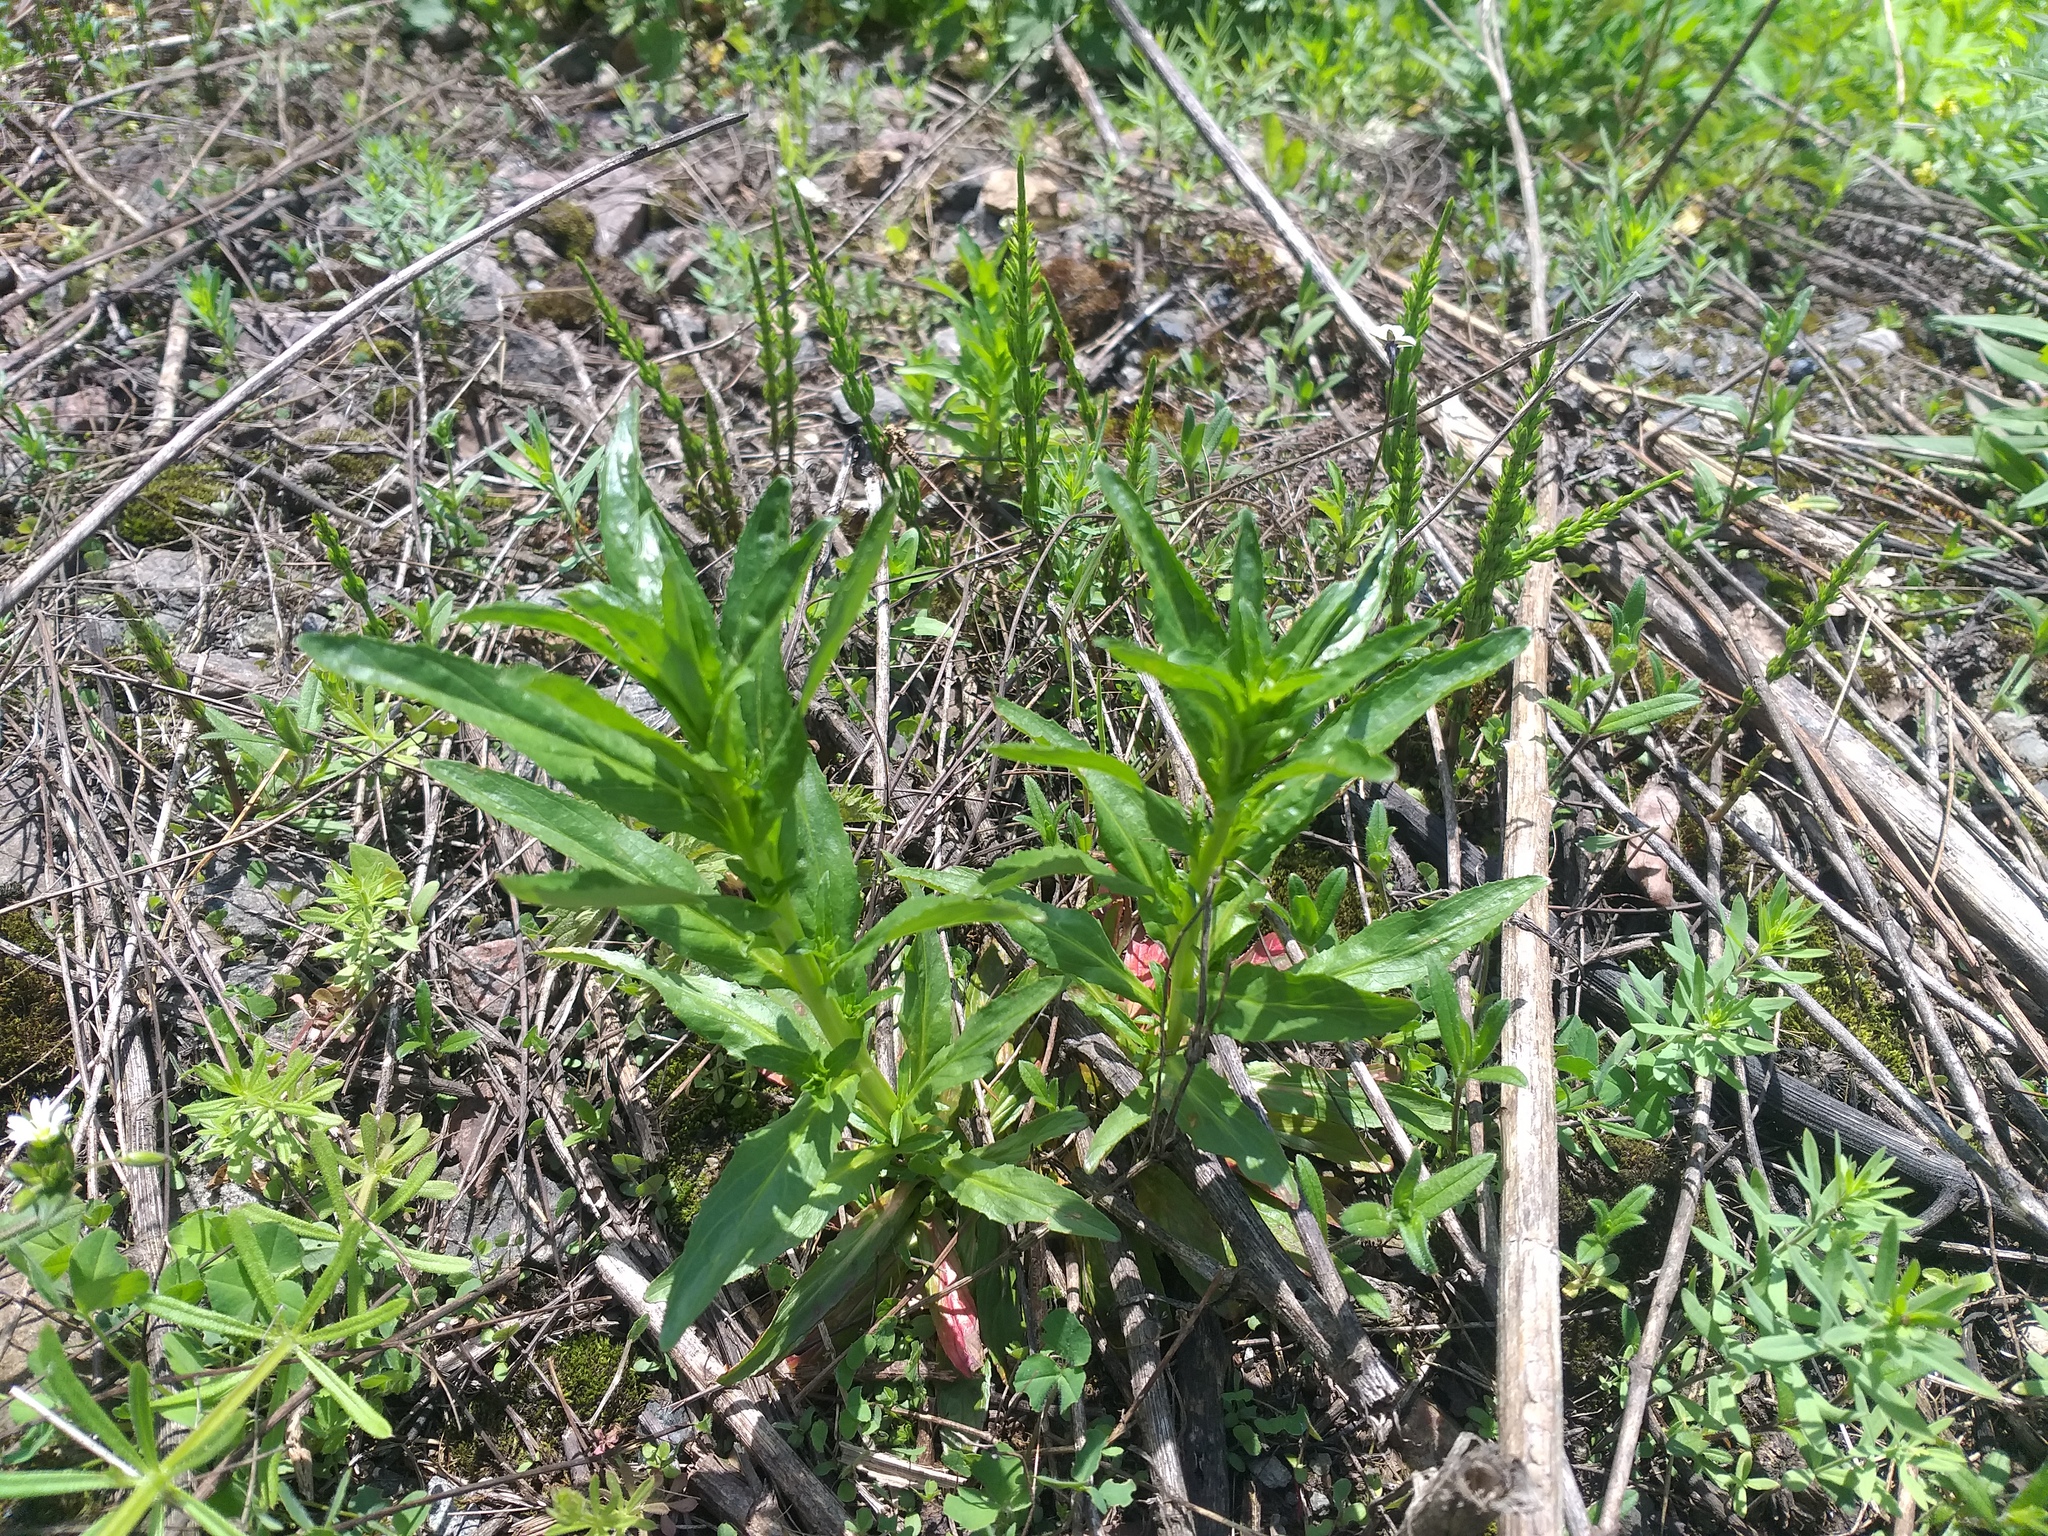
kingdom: Plantae
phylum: Tracheophyta
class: Magnoliopsida
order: Myrtales
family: Onagraceae
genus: Epilobium
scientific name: Epilobium tetragonum
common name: Square-stemmed willowherb
